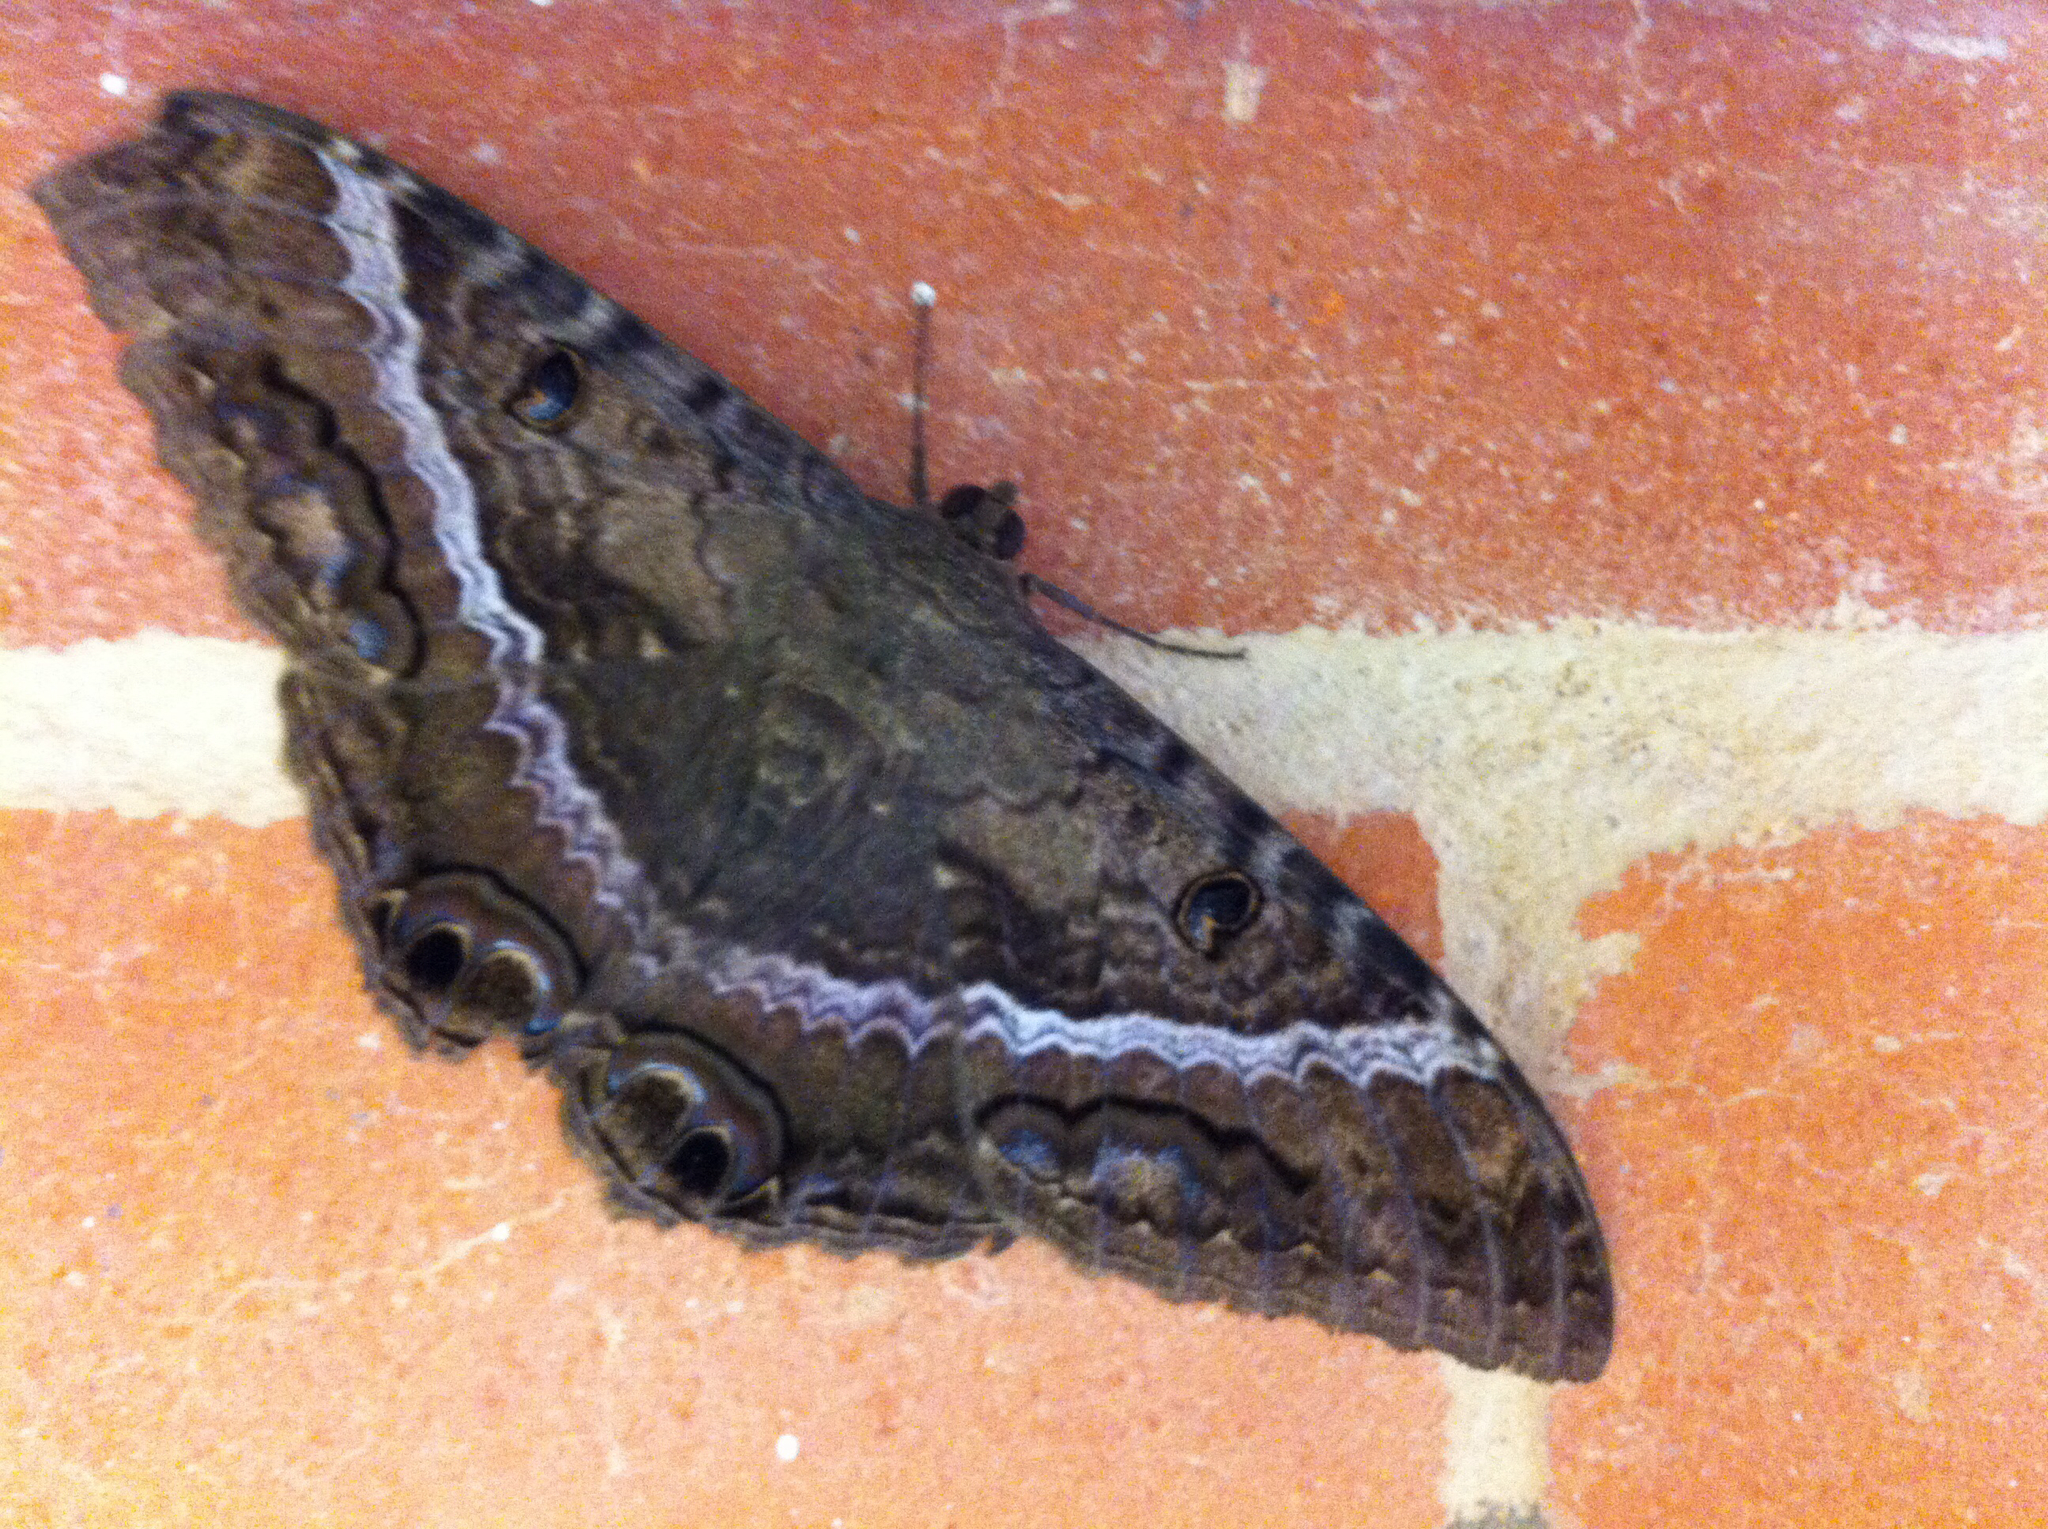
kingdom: Animalia
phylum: Arthropoda
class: Insecta
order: Lepidoptera
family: Erebidae
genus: Ascalapha
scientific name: Ascalapha odorata
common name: Black witch
